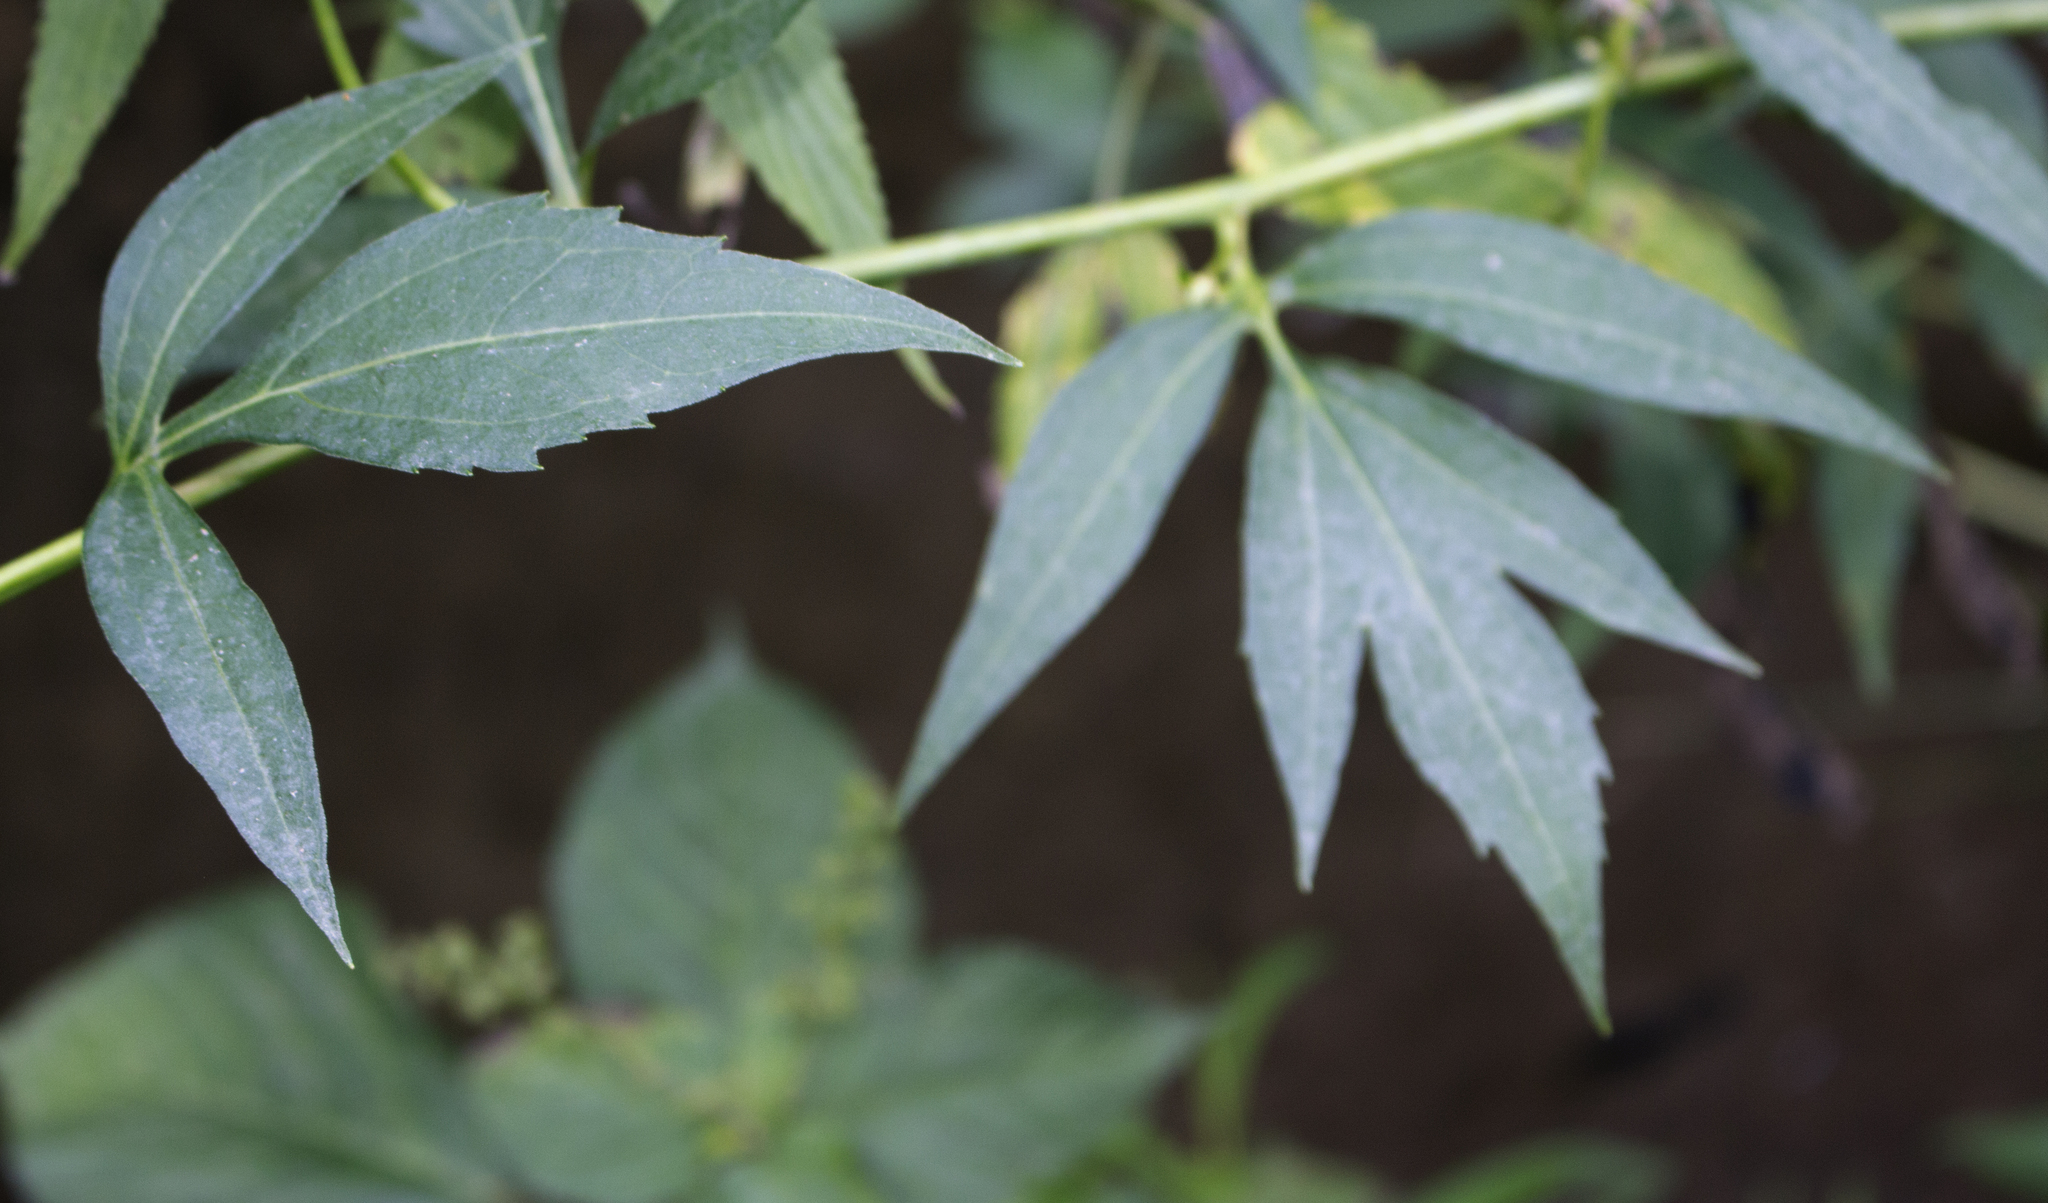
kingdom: Plantae
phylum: Tracheophyta
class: Magnoliopsida
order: Asterales
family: Asteraceae
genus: Rudbeckia
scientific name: Rudbeckia laciniata
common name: Coneflower
